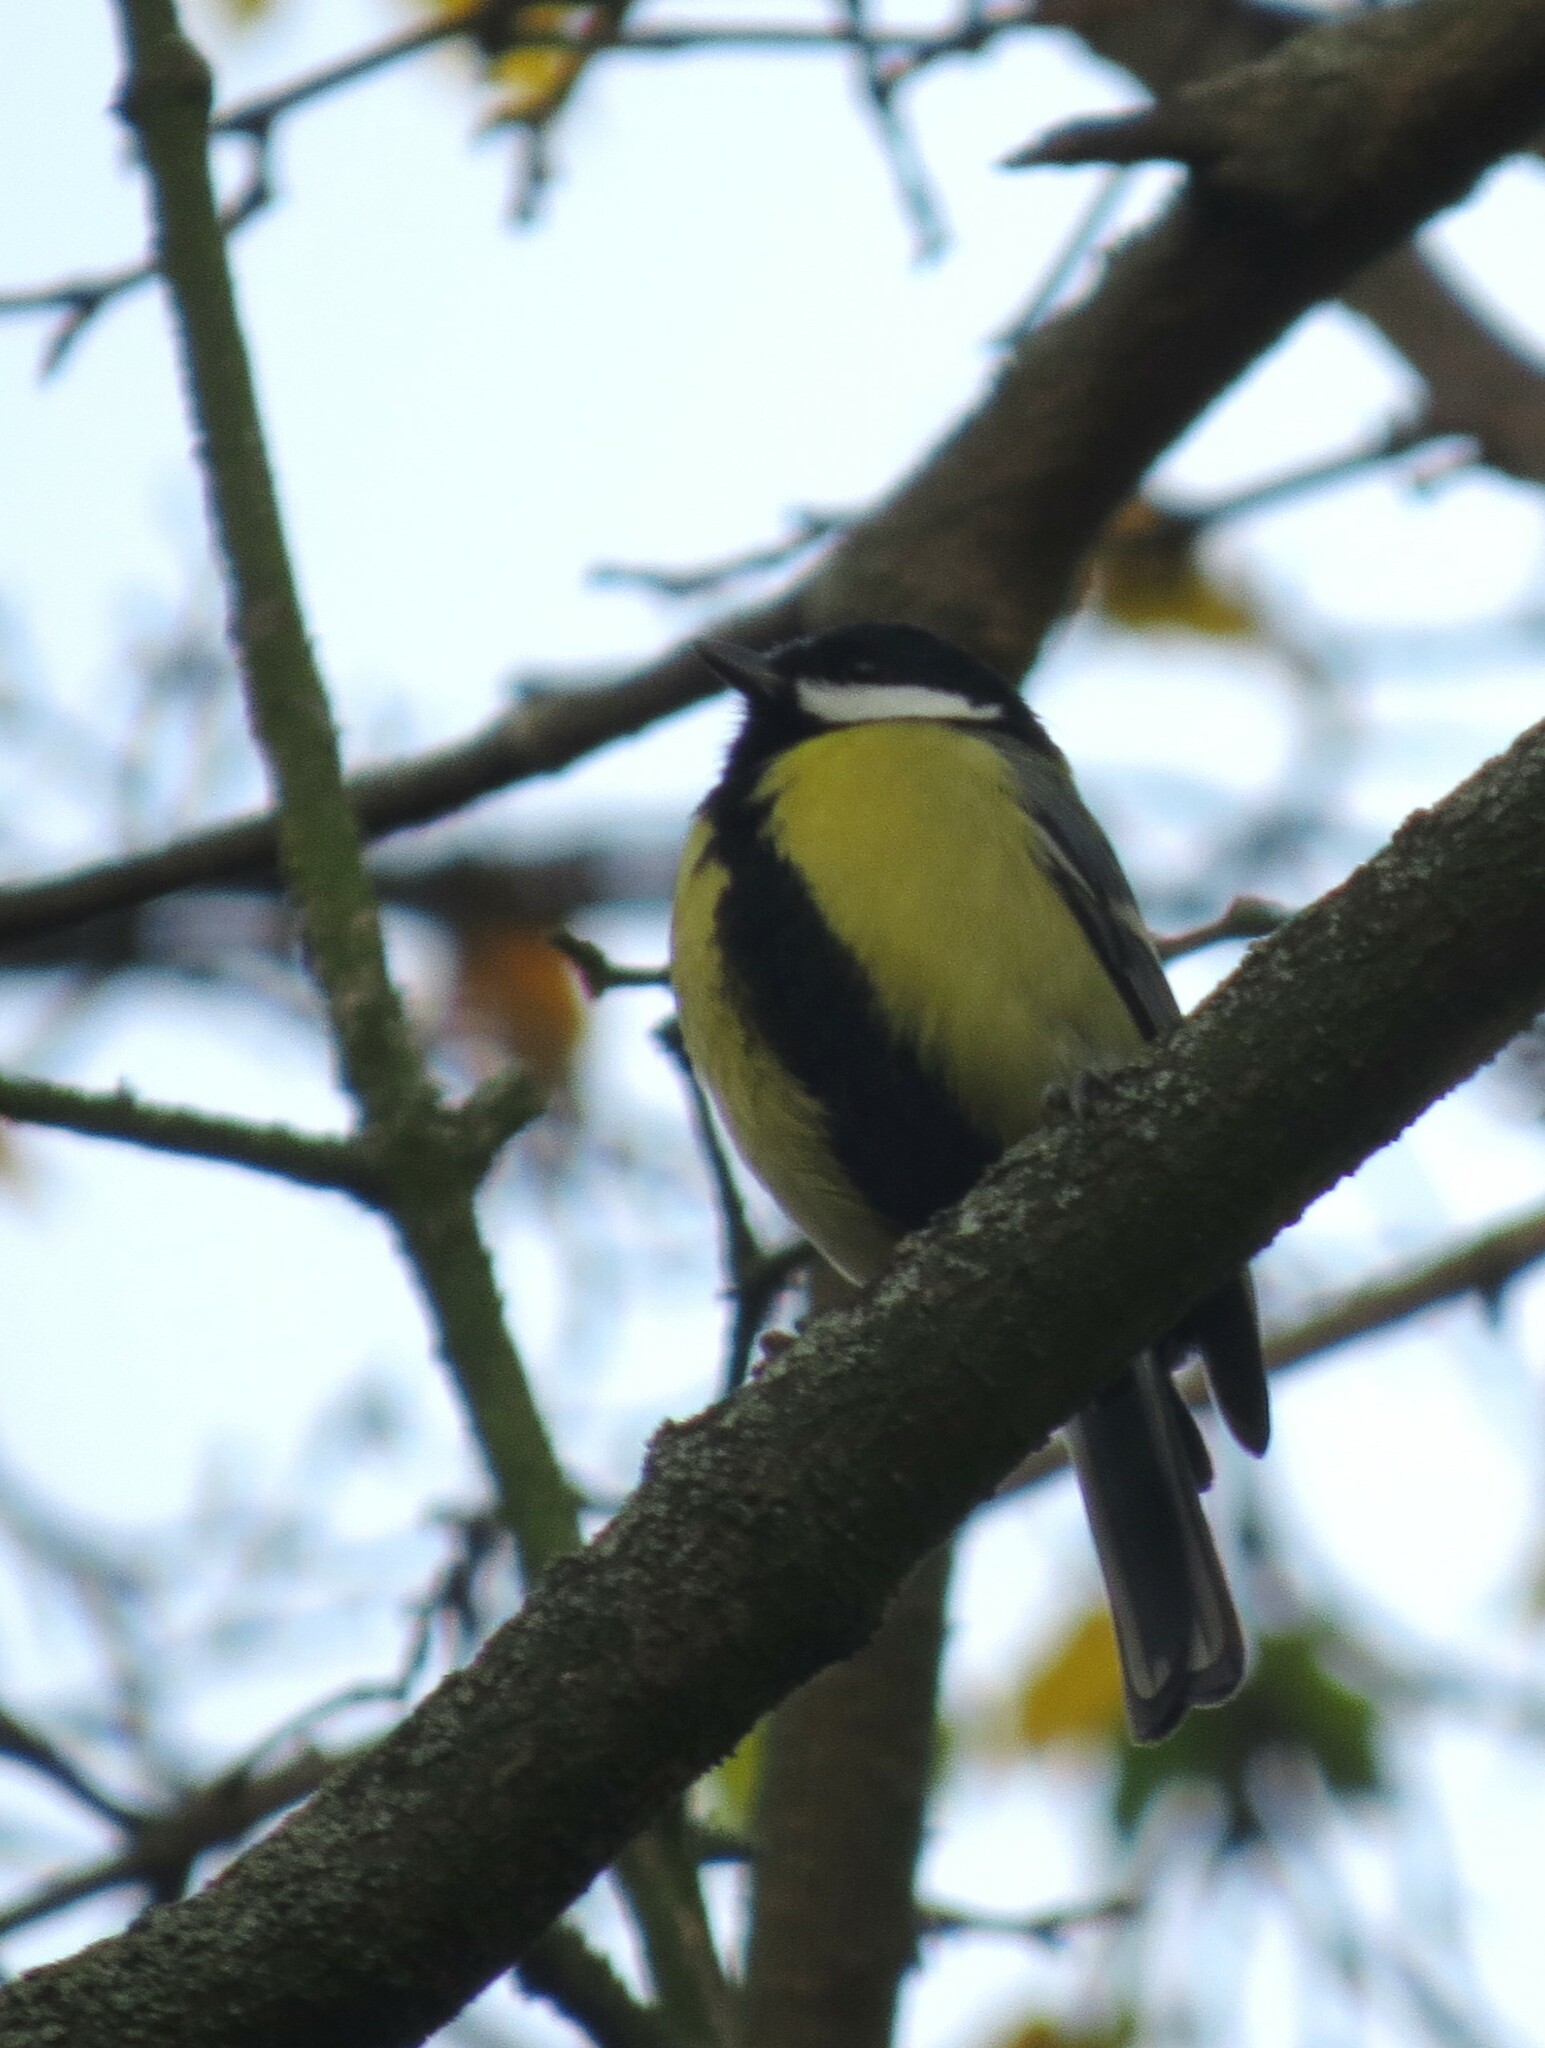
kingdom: Animalia
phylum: Chordata
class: Aves
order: Passeriformes
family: Paridae
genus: Parus
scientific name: Parus major
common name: Great tit
